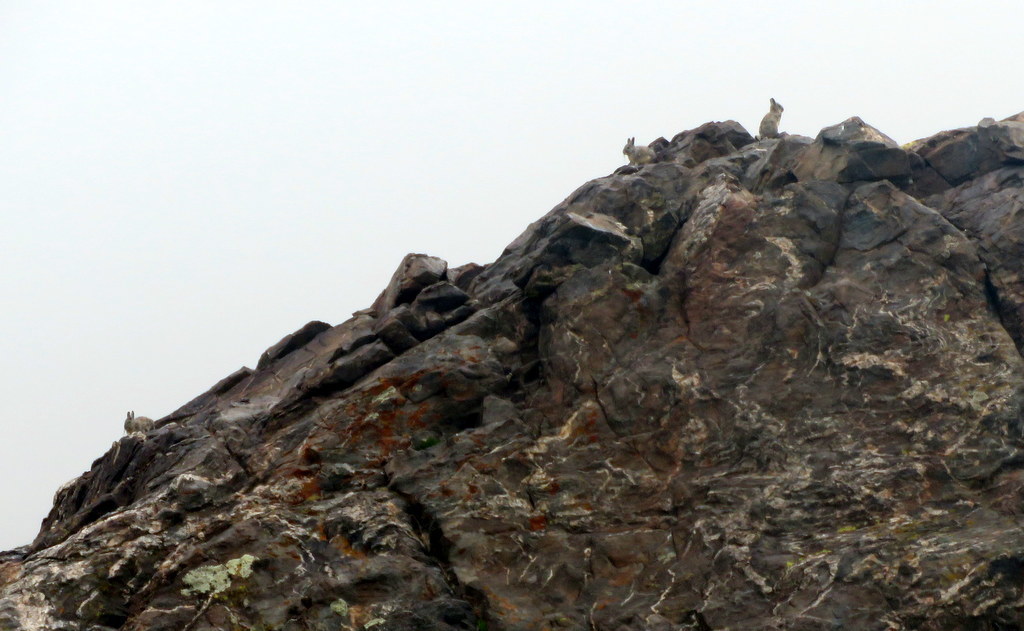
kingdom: Animalia
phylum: Chordata
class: Mammalia
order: Rodentia
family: Chinchillidae
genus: Lagidium
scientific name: Lagidium viscacia
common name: Southern viscacha
